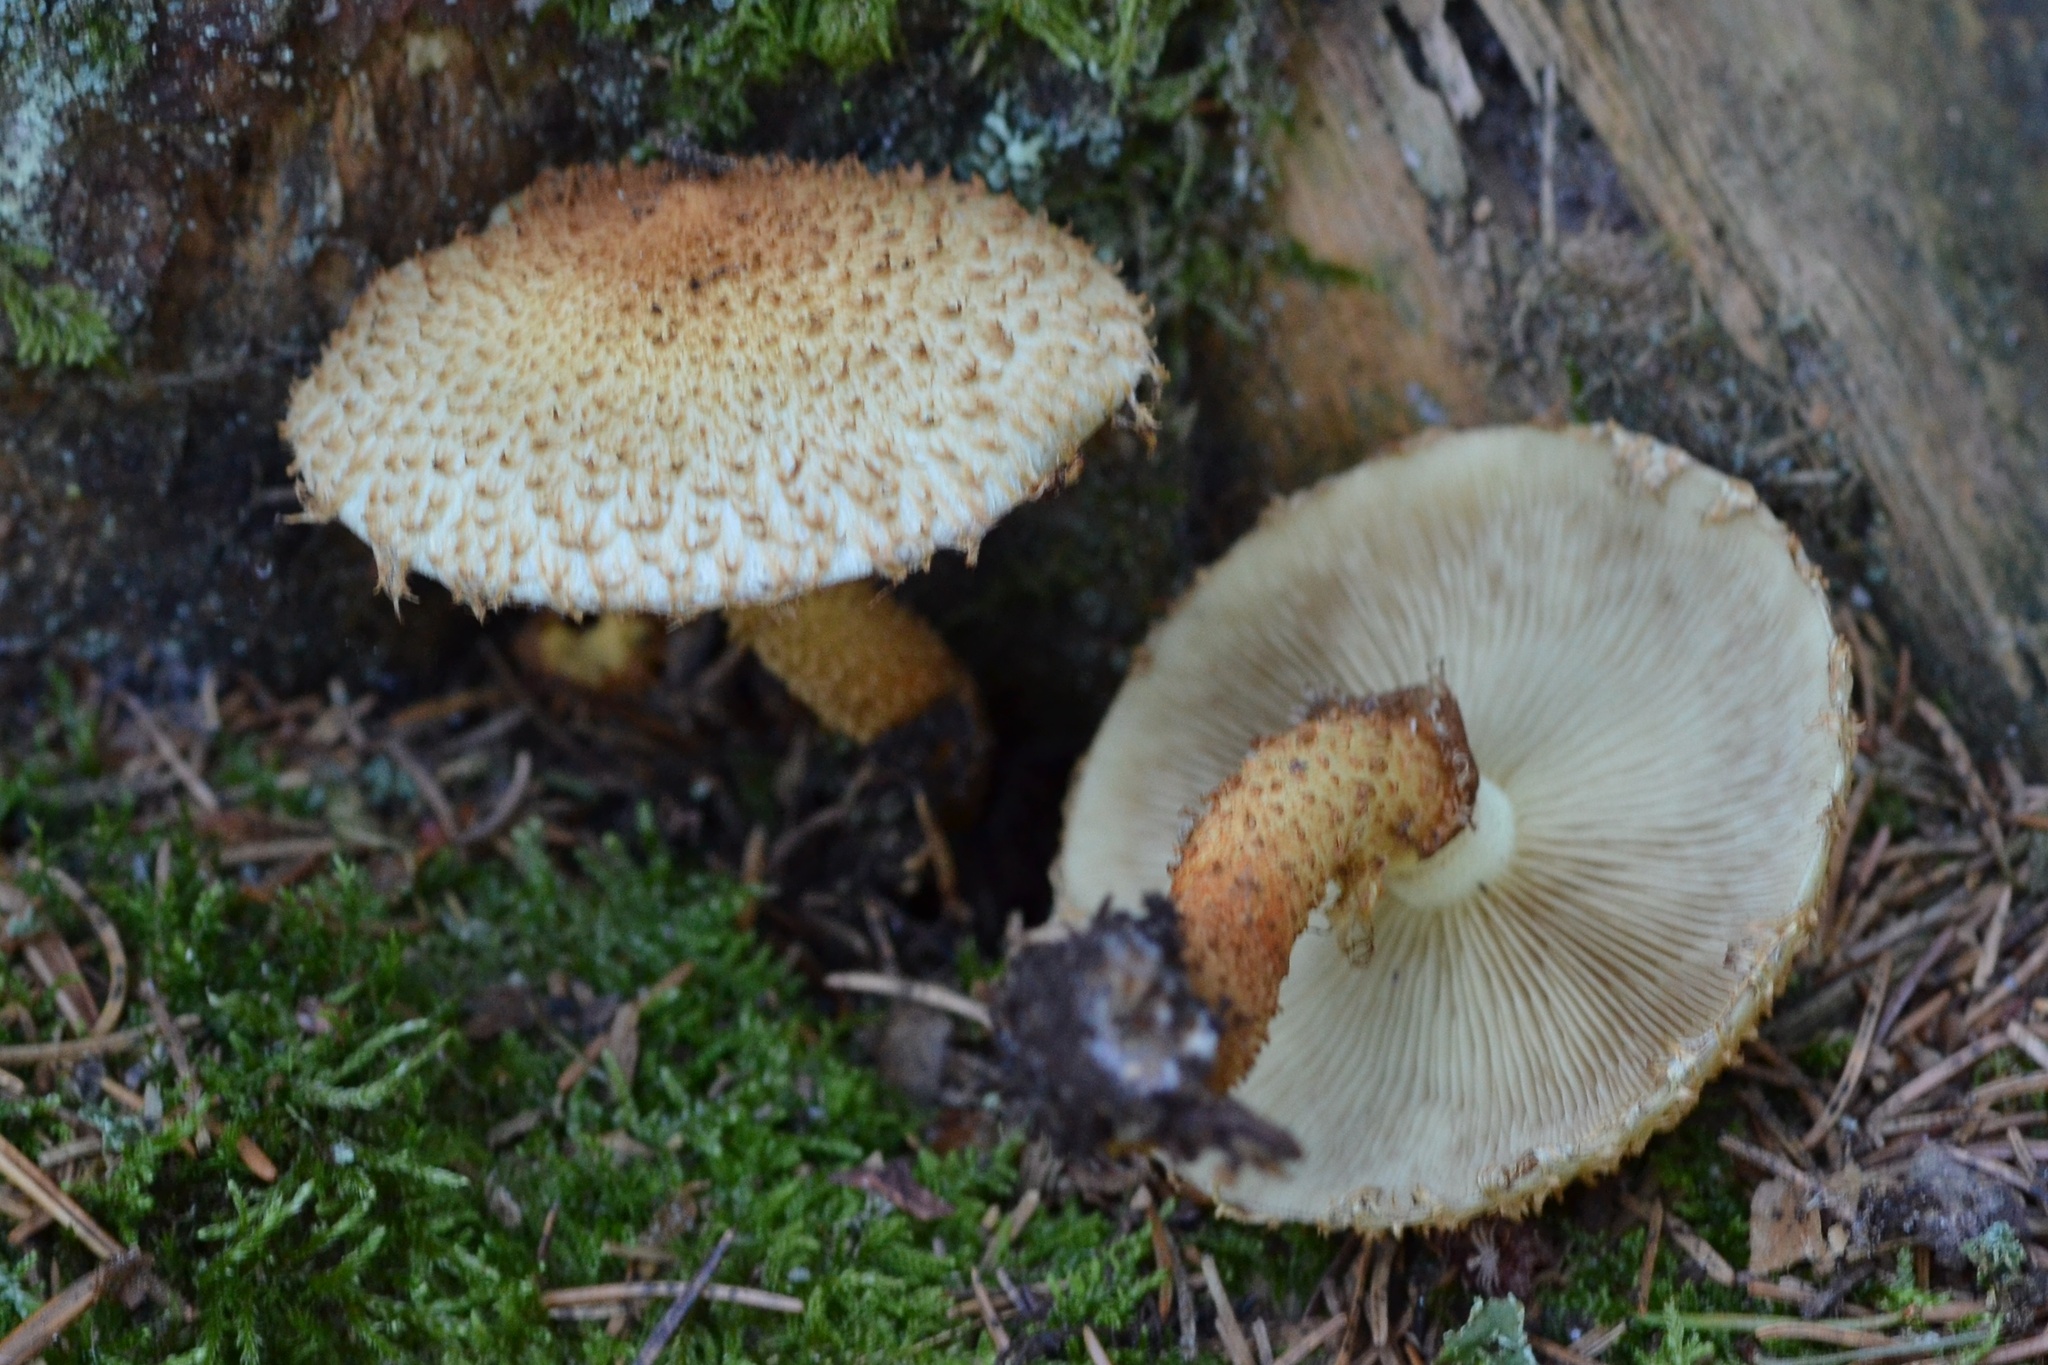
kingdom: Fungi
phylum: Basidiomycota
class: Agaricomycetes
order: Agaricales
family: Strophariaceae
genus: Pholiota
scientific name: Pholiota squarrosa
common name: Shaggy pholiota
